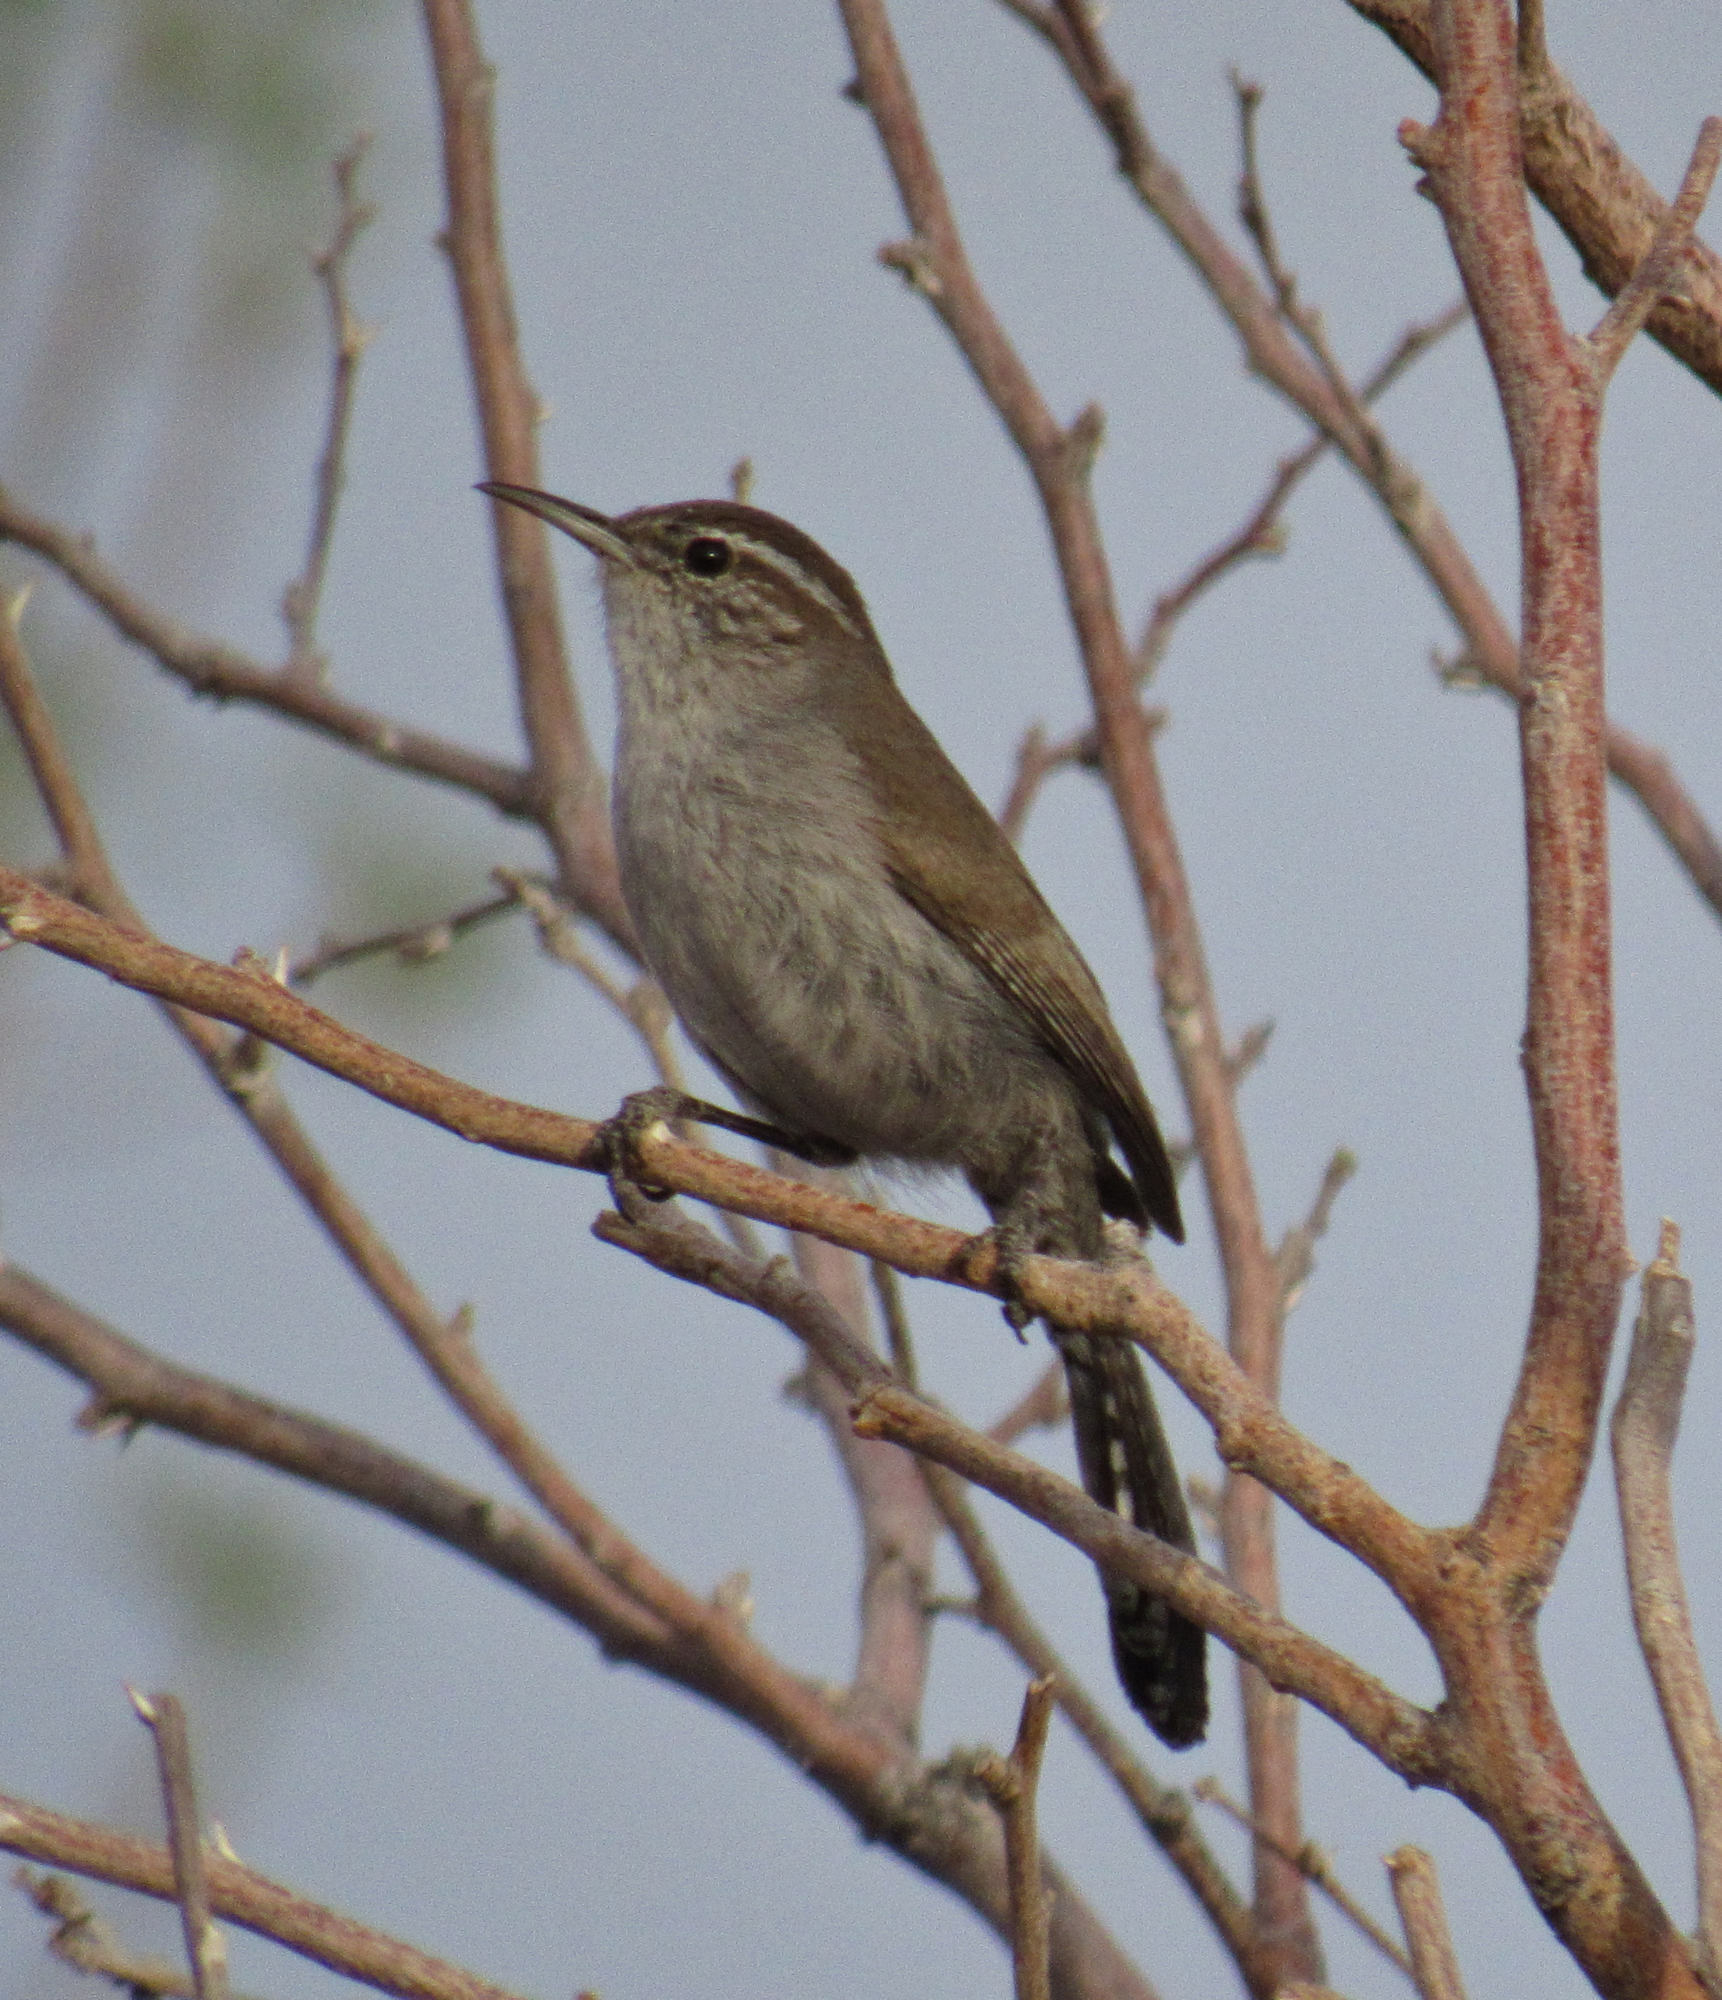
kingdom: Animalia
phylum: Chordata
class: Aves
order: Passeriformes
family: Troglodytidae
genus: Thryomanes
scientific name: Thryomanes bewickii
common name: Bewick's wren
